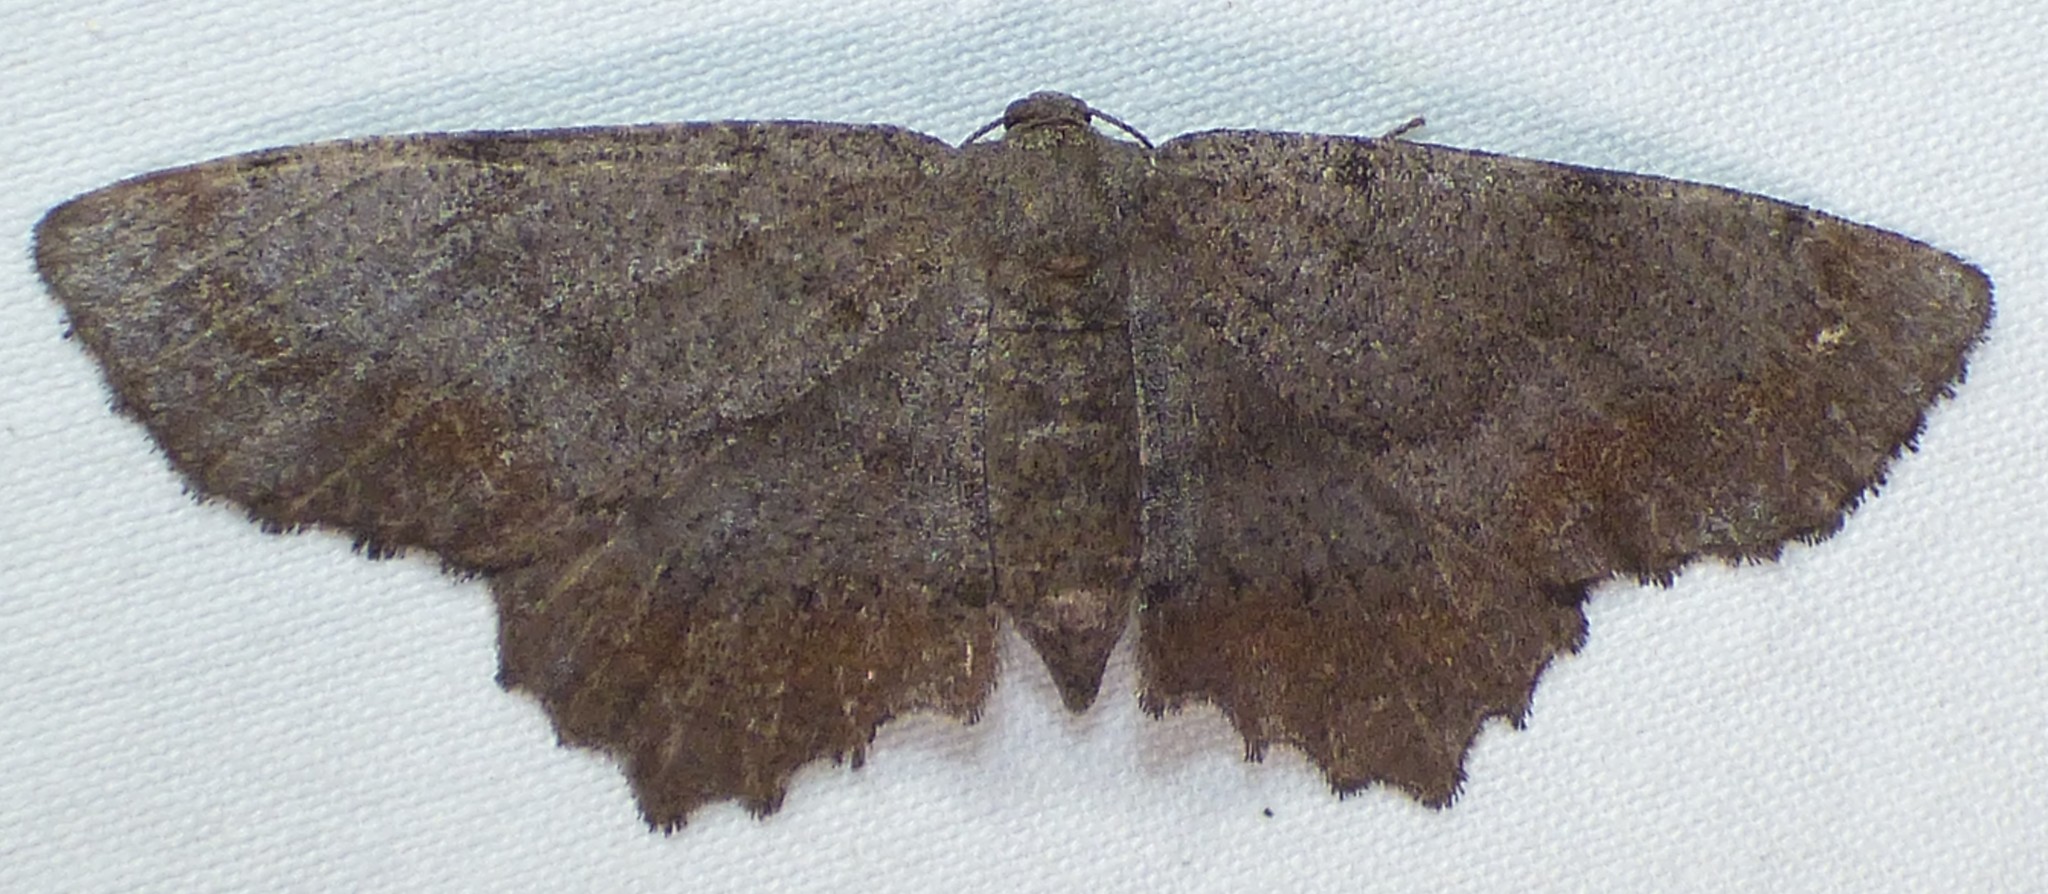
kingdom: Animalia
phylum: Arthropoda
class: Insecta
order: Lepidoptera
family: Geometridae
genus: Hypagyrtis
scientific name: Hypagyrtis esther
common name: Esther moth
